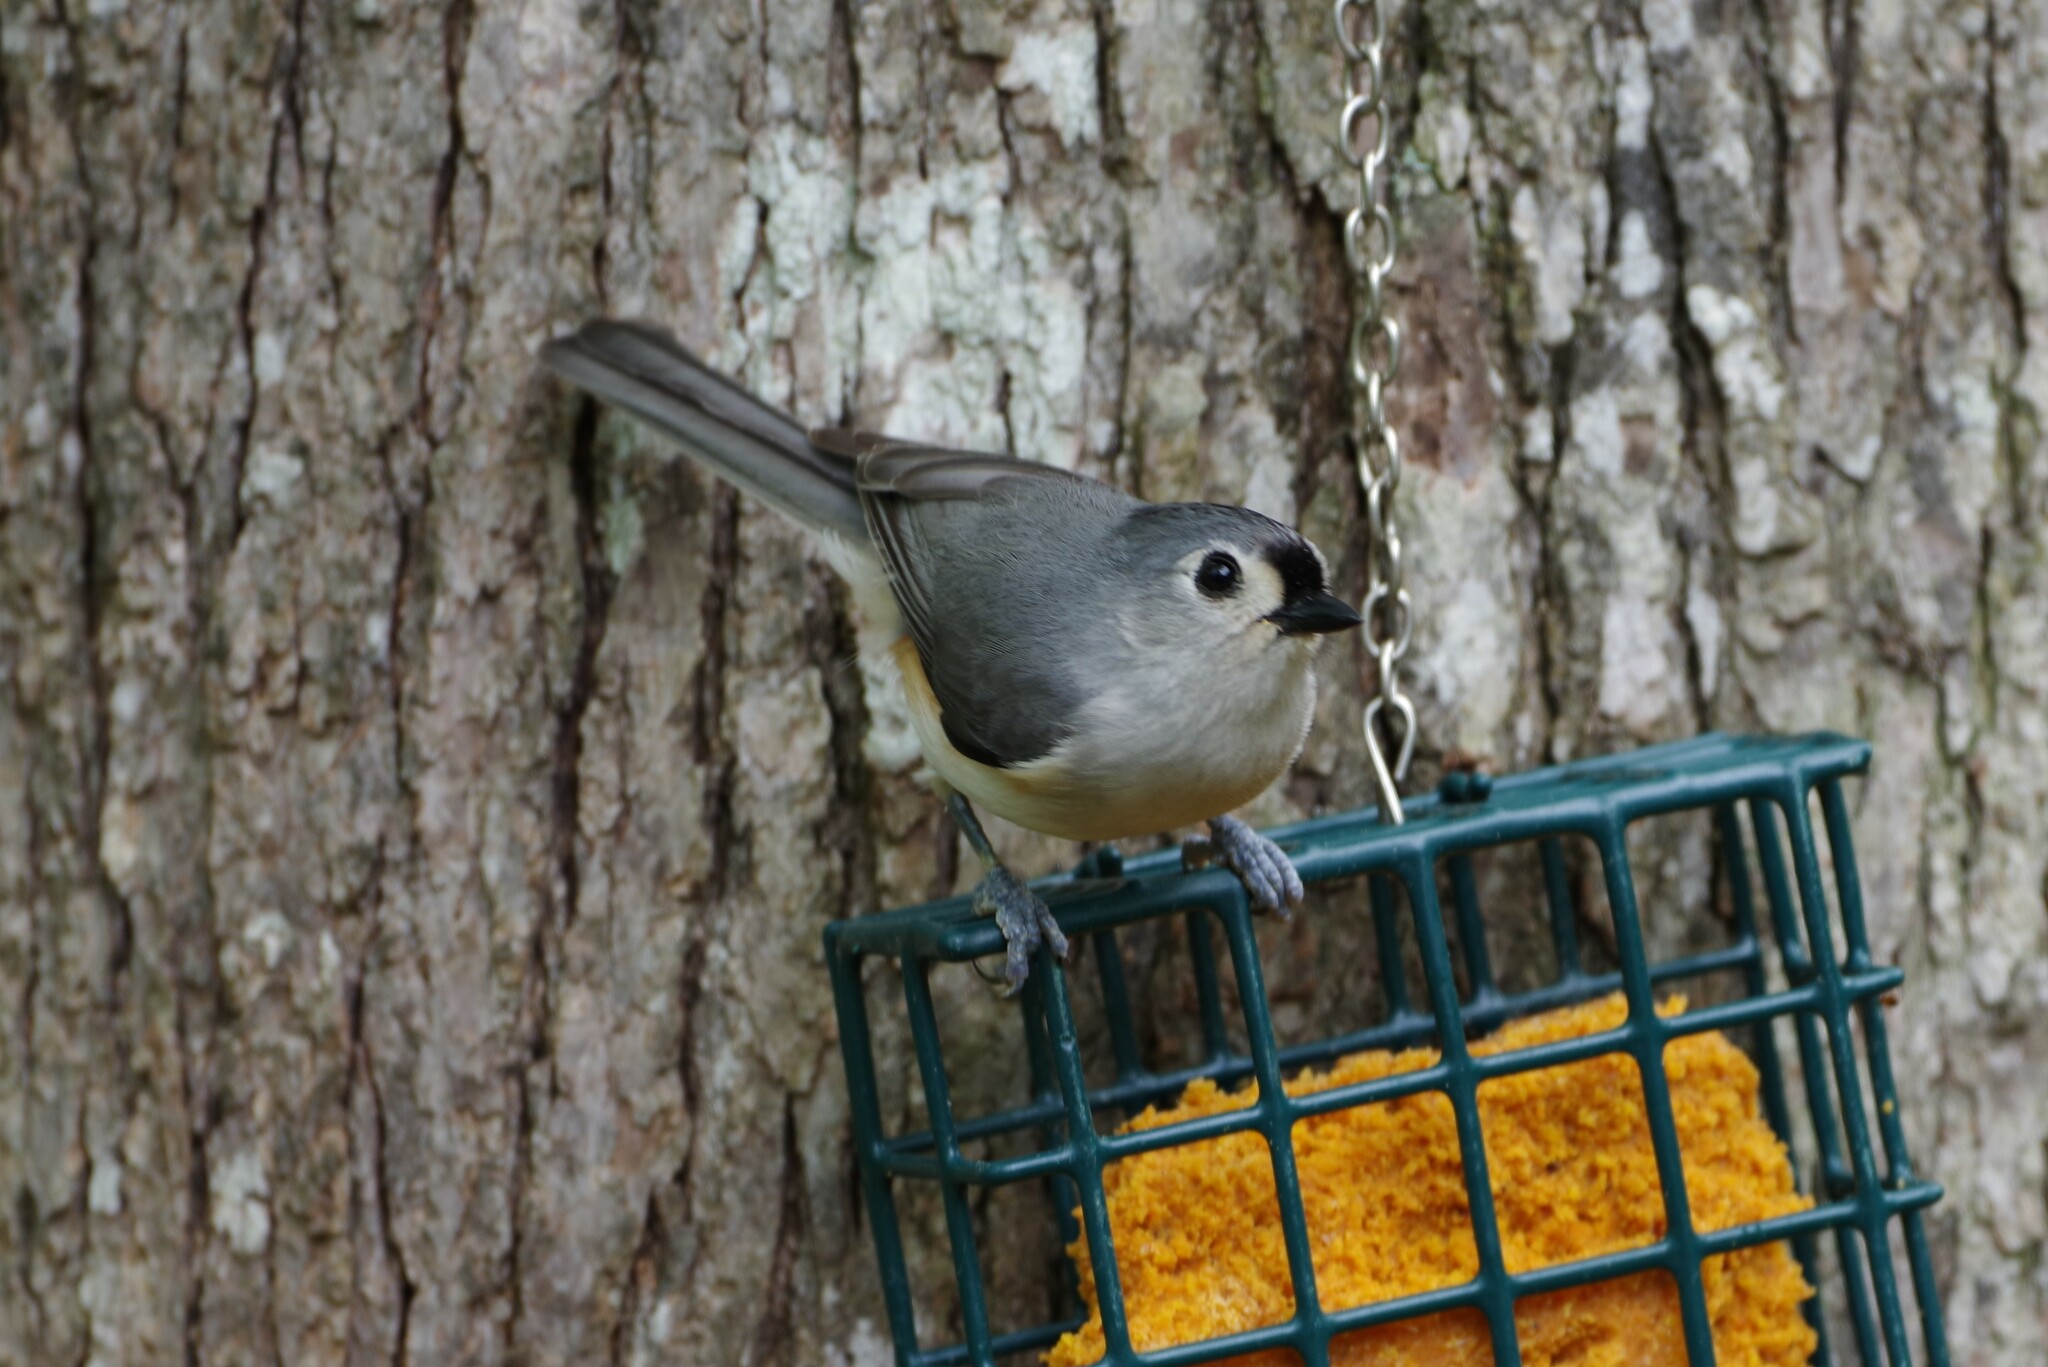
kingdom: Animalia
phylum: Chordata
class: Aves
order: Passeriformes
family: Paridae
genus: Baeolophus
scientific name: Baeolophus bicolor
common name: Tufted titmouse
